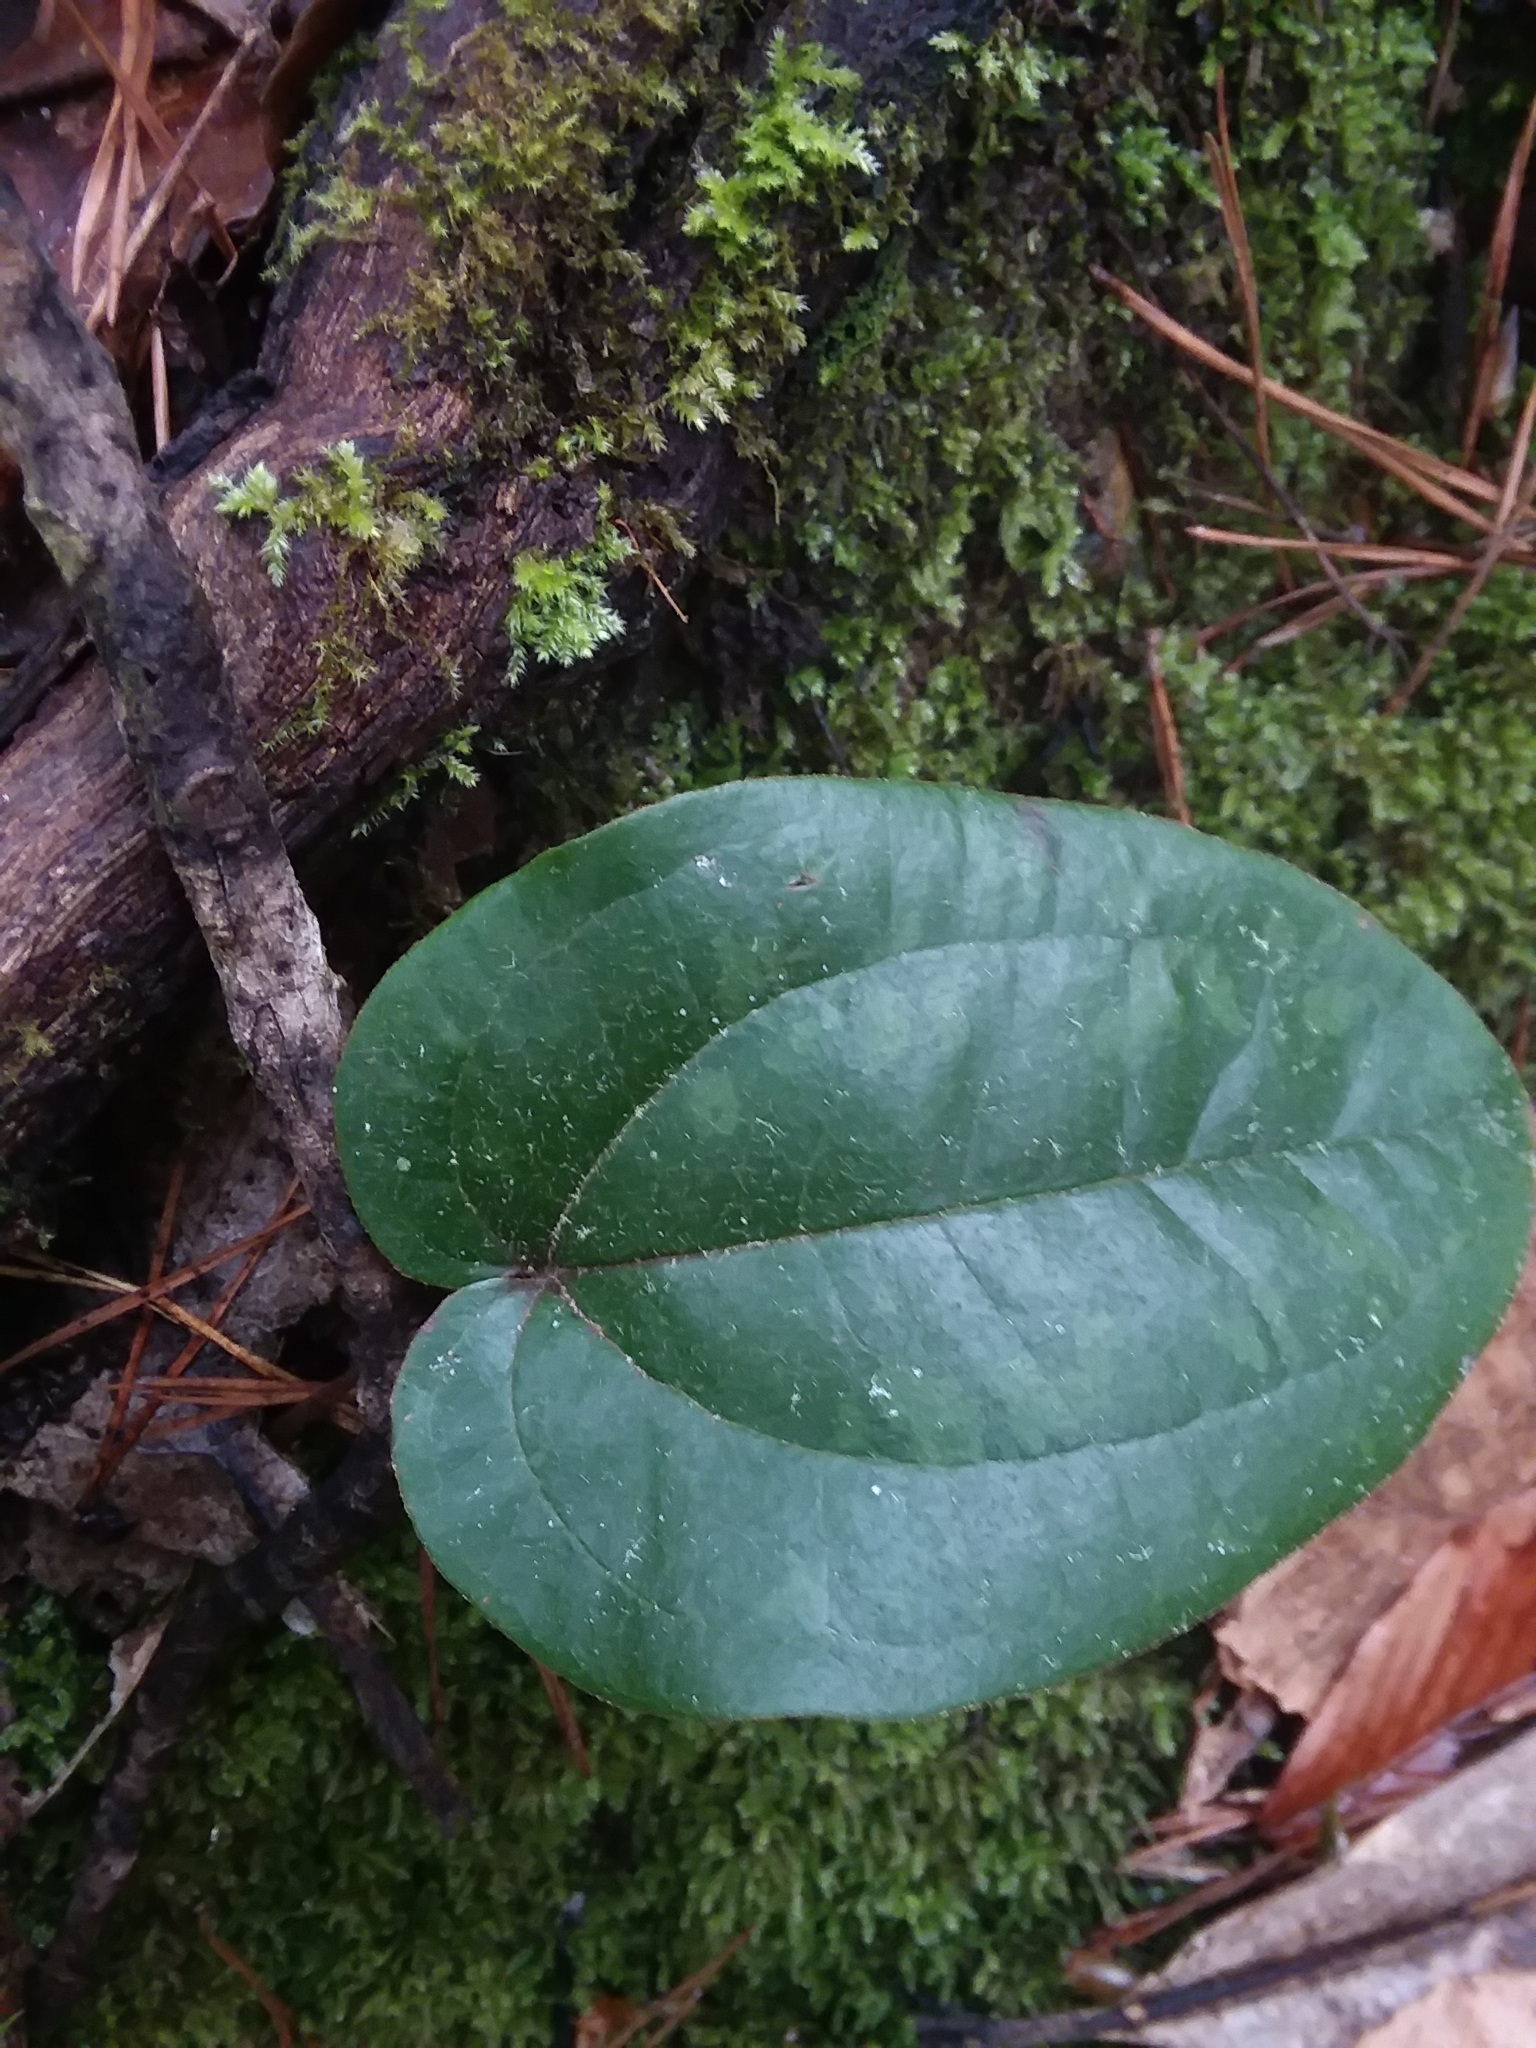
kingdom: Plantae
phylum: Tracheophyta
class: Liliopsida
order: Liliales
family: Smilacaceae
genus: Smilax
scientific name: Smilax pumila
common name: Sarsaparilla-vine
